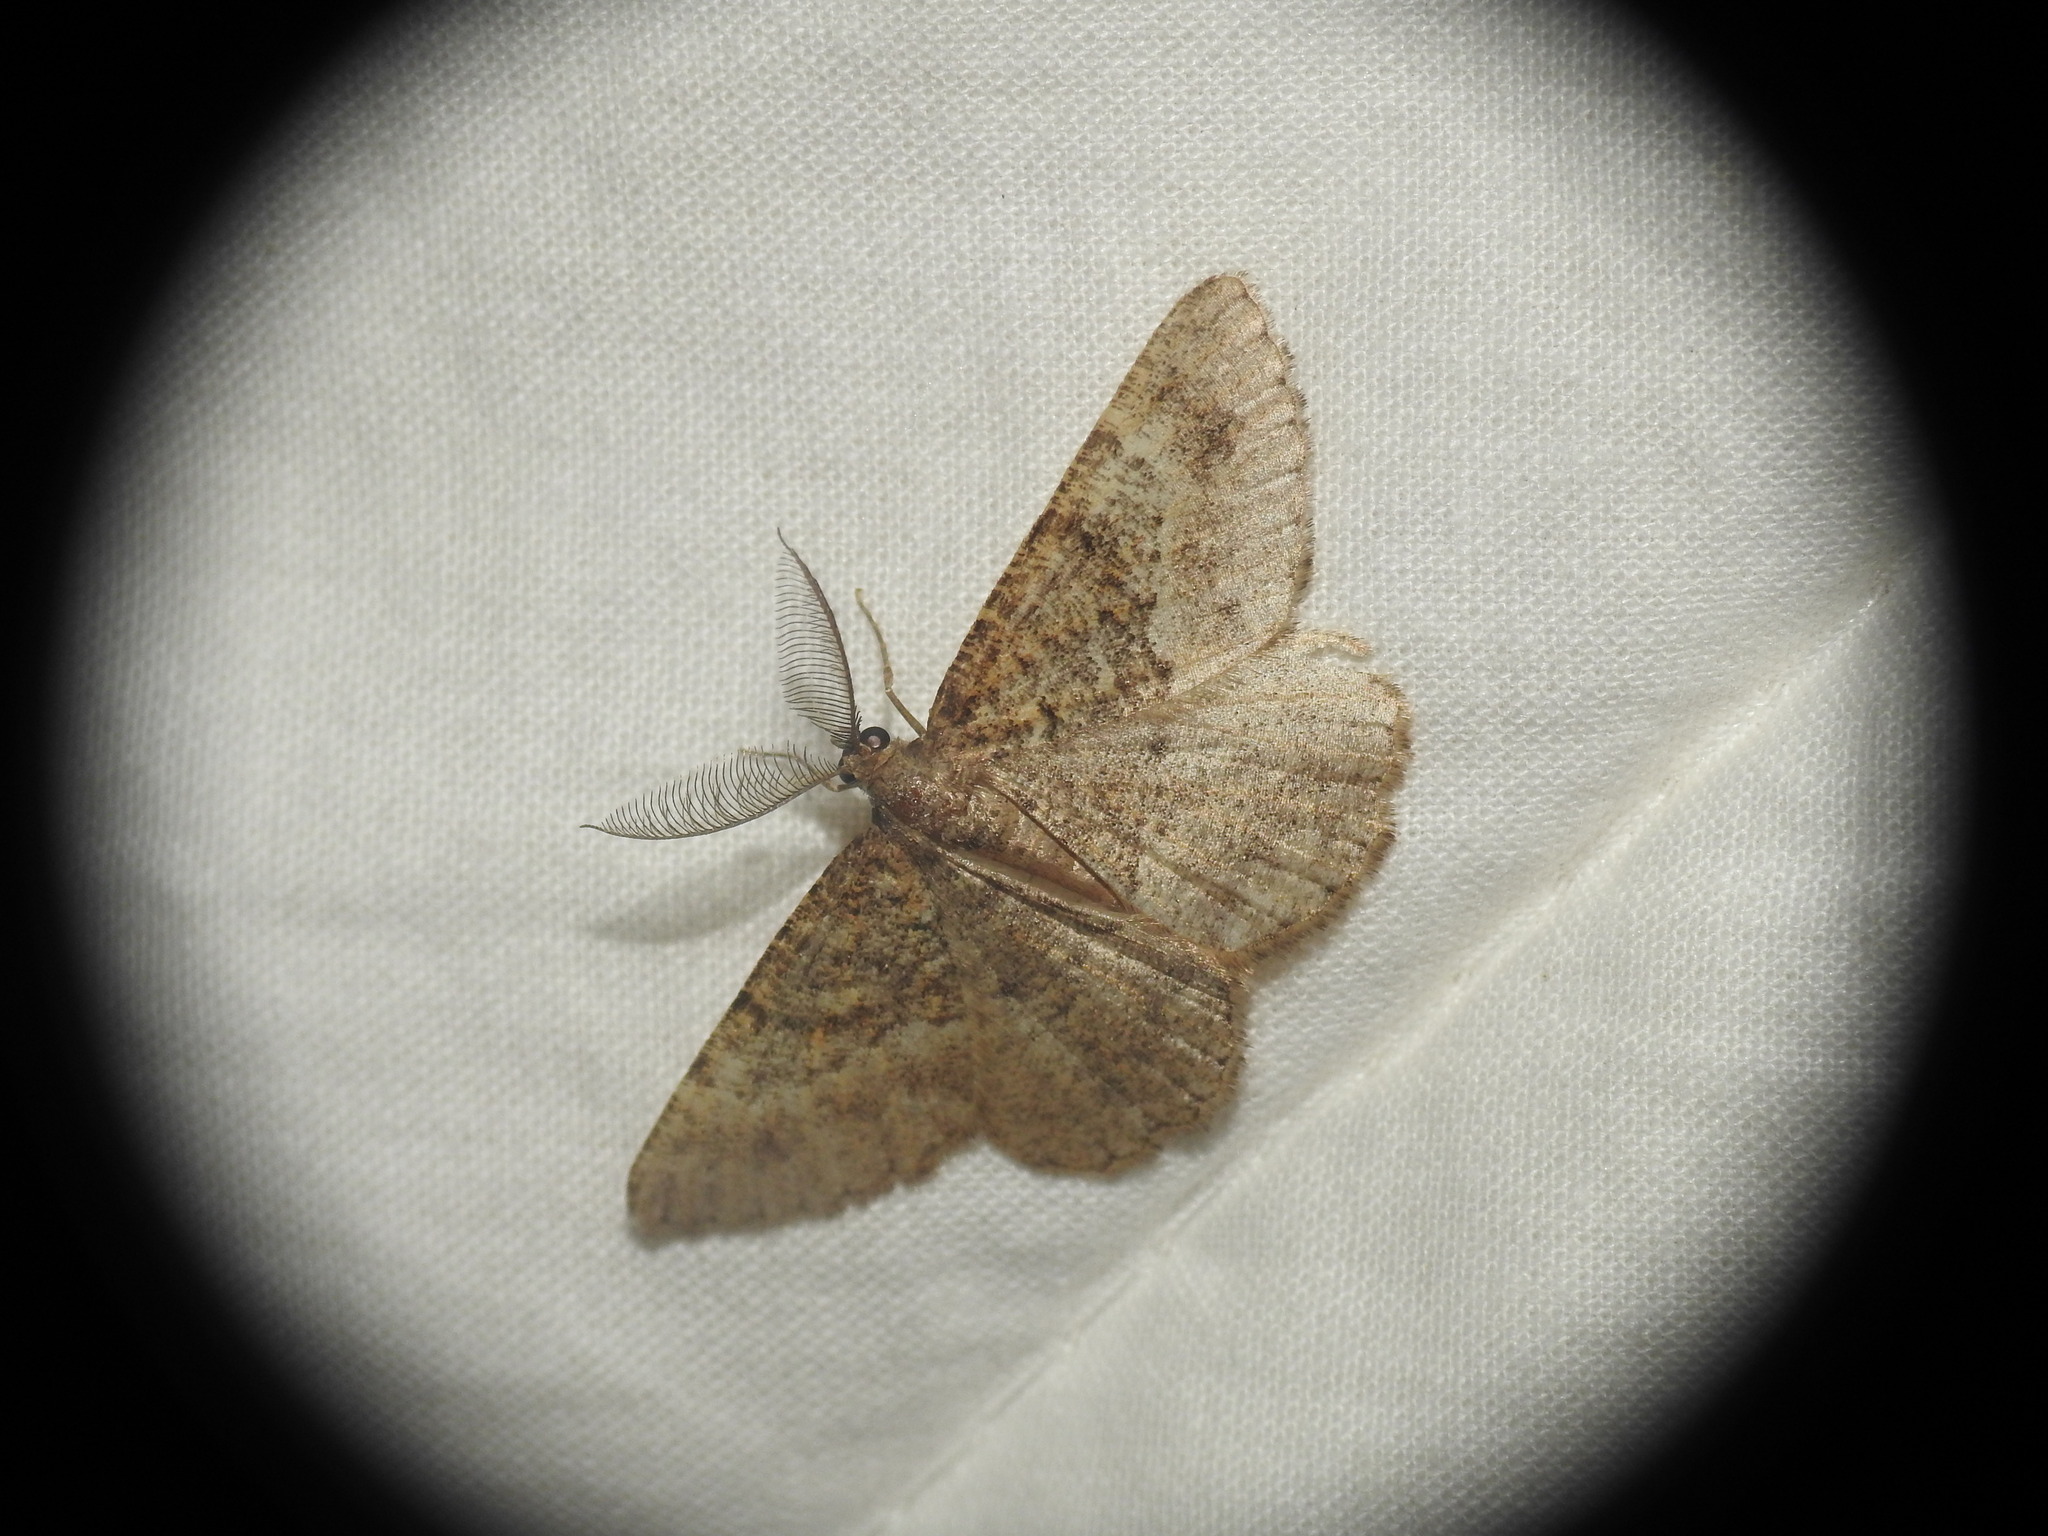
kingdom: Animalia
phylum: Arthropoda
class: Insecta
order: Lepidoptera
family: Geometridae
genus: Selidosema
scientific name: Selidosema taeniolaria
